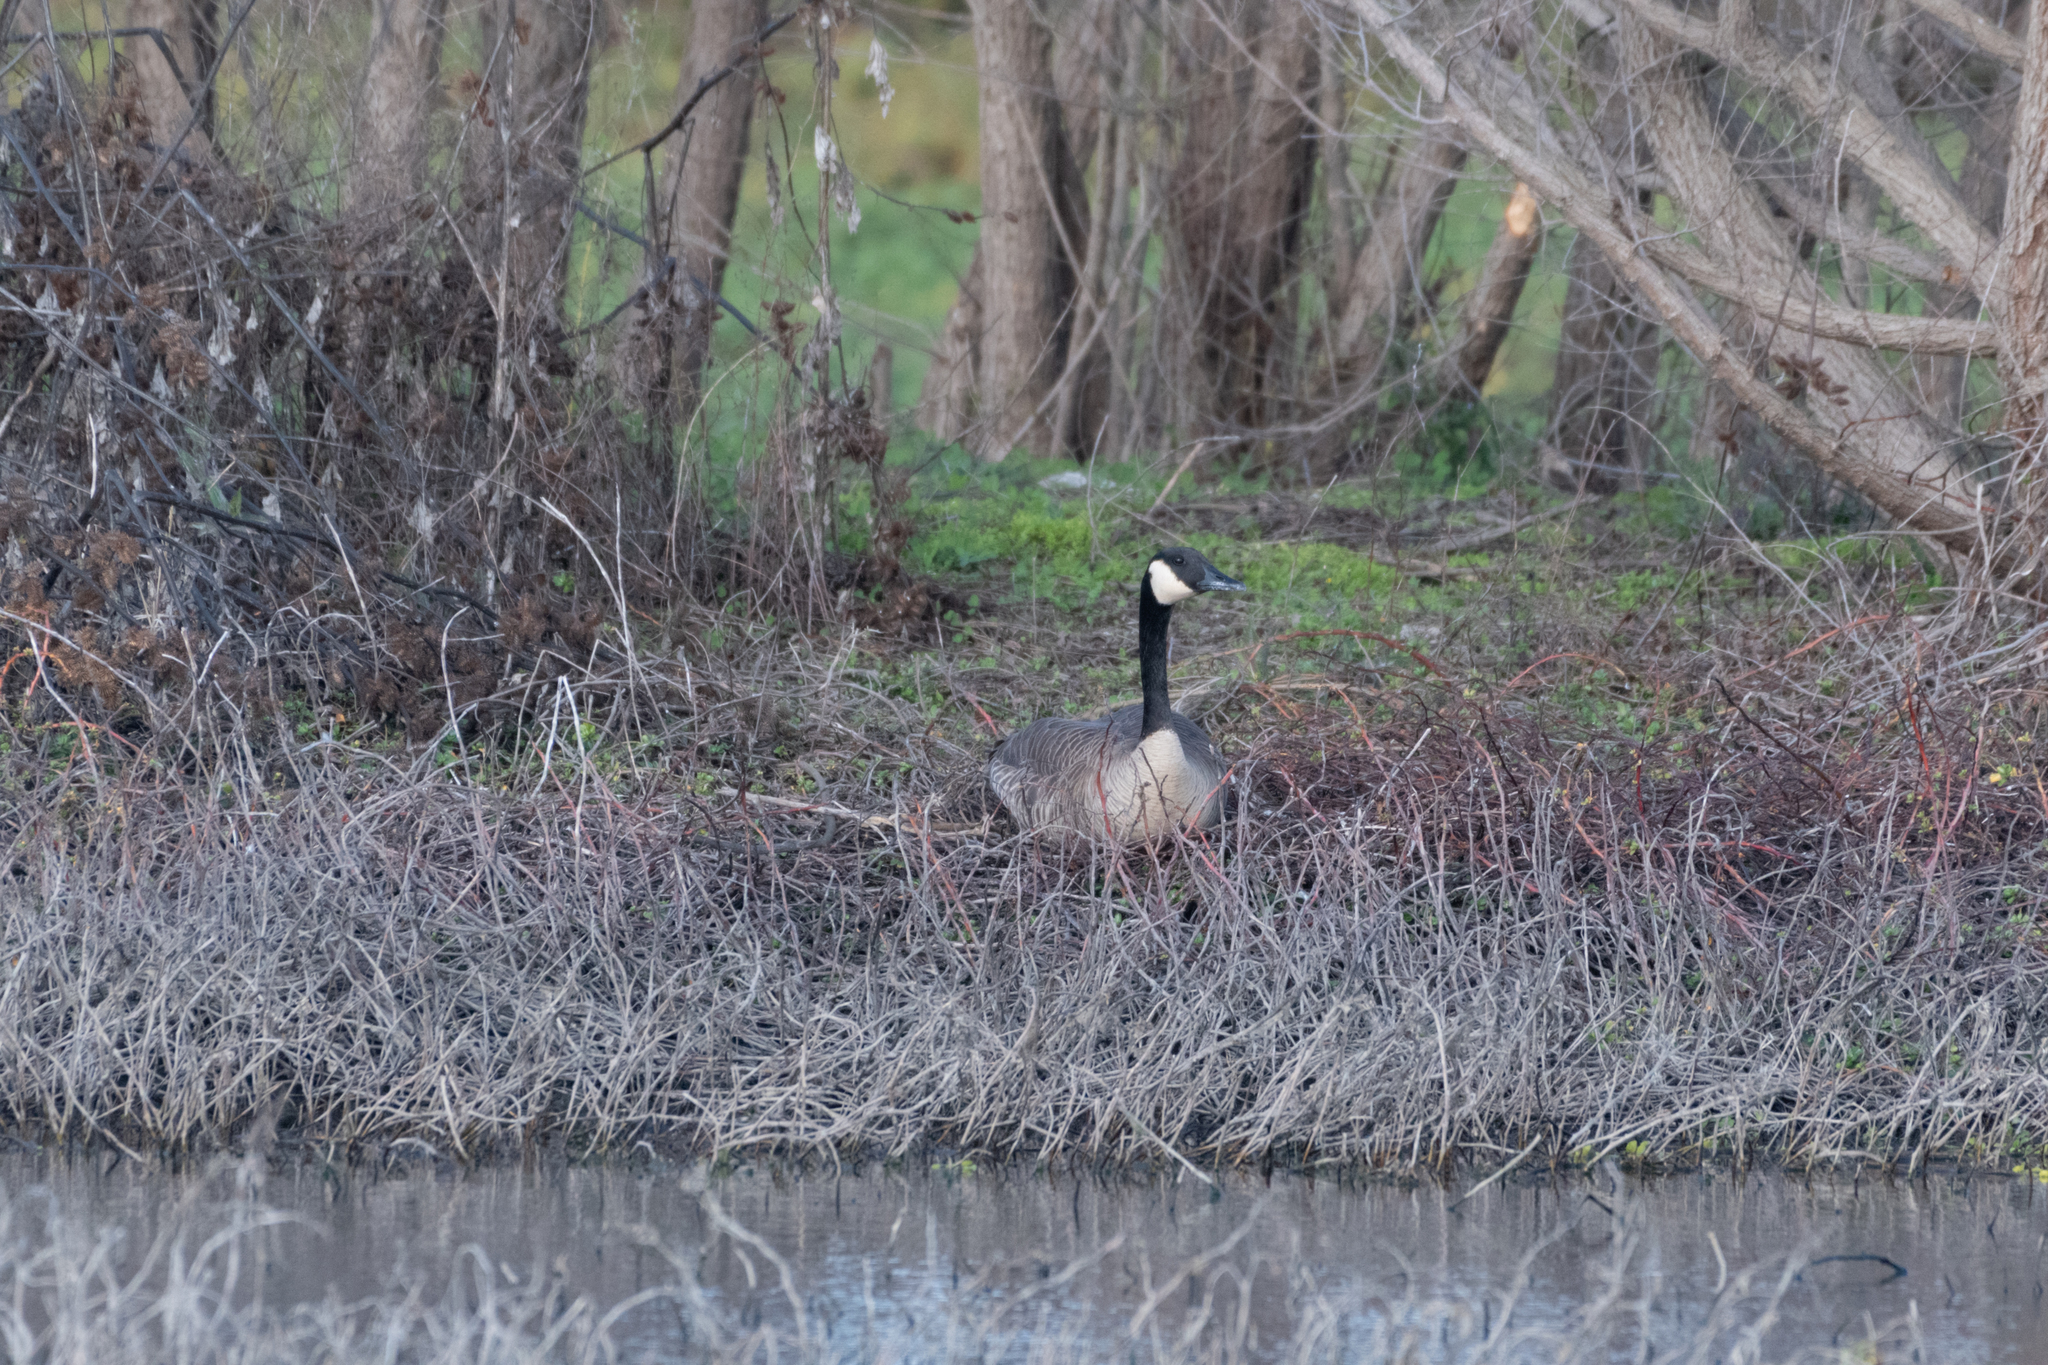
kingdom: Animalia
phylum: Chordata
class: Aves
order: Anseriformes
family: Anatidae
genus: Branta
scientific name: Branta canadensis
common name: Canada goose
